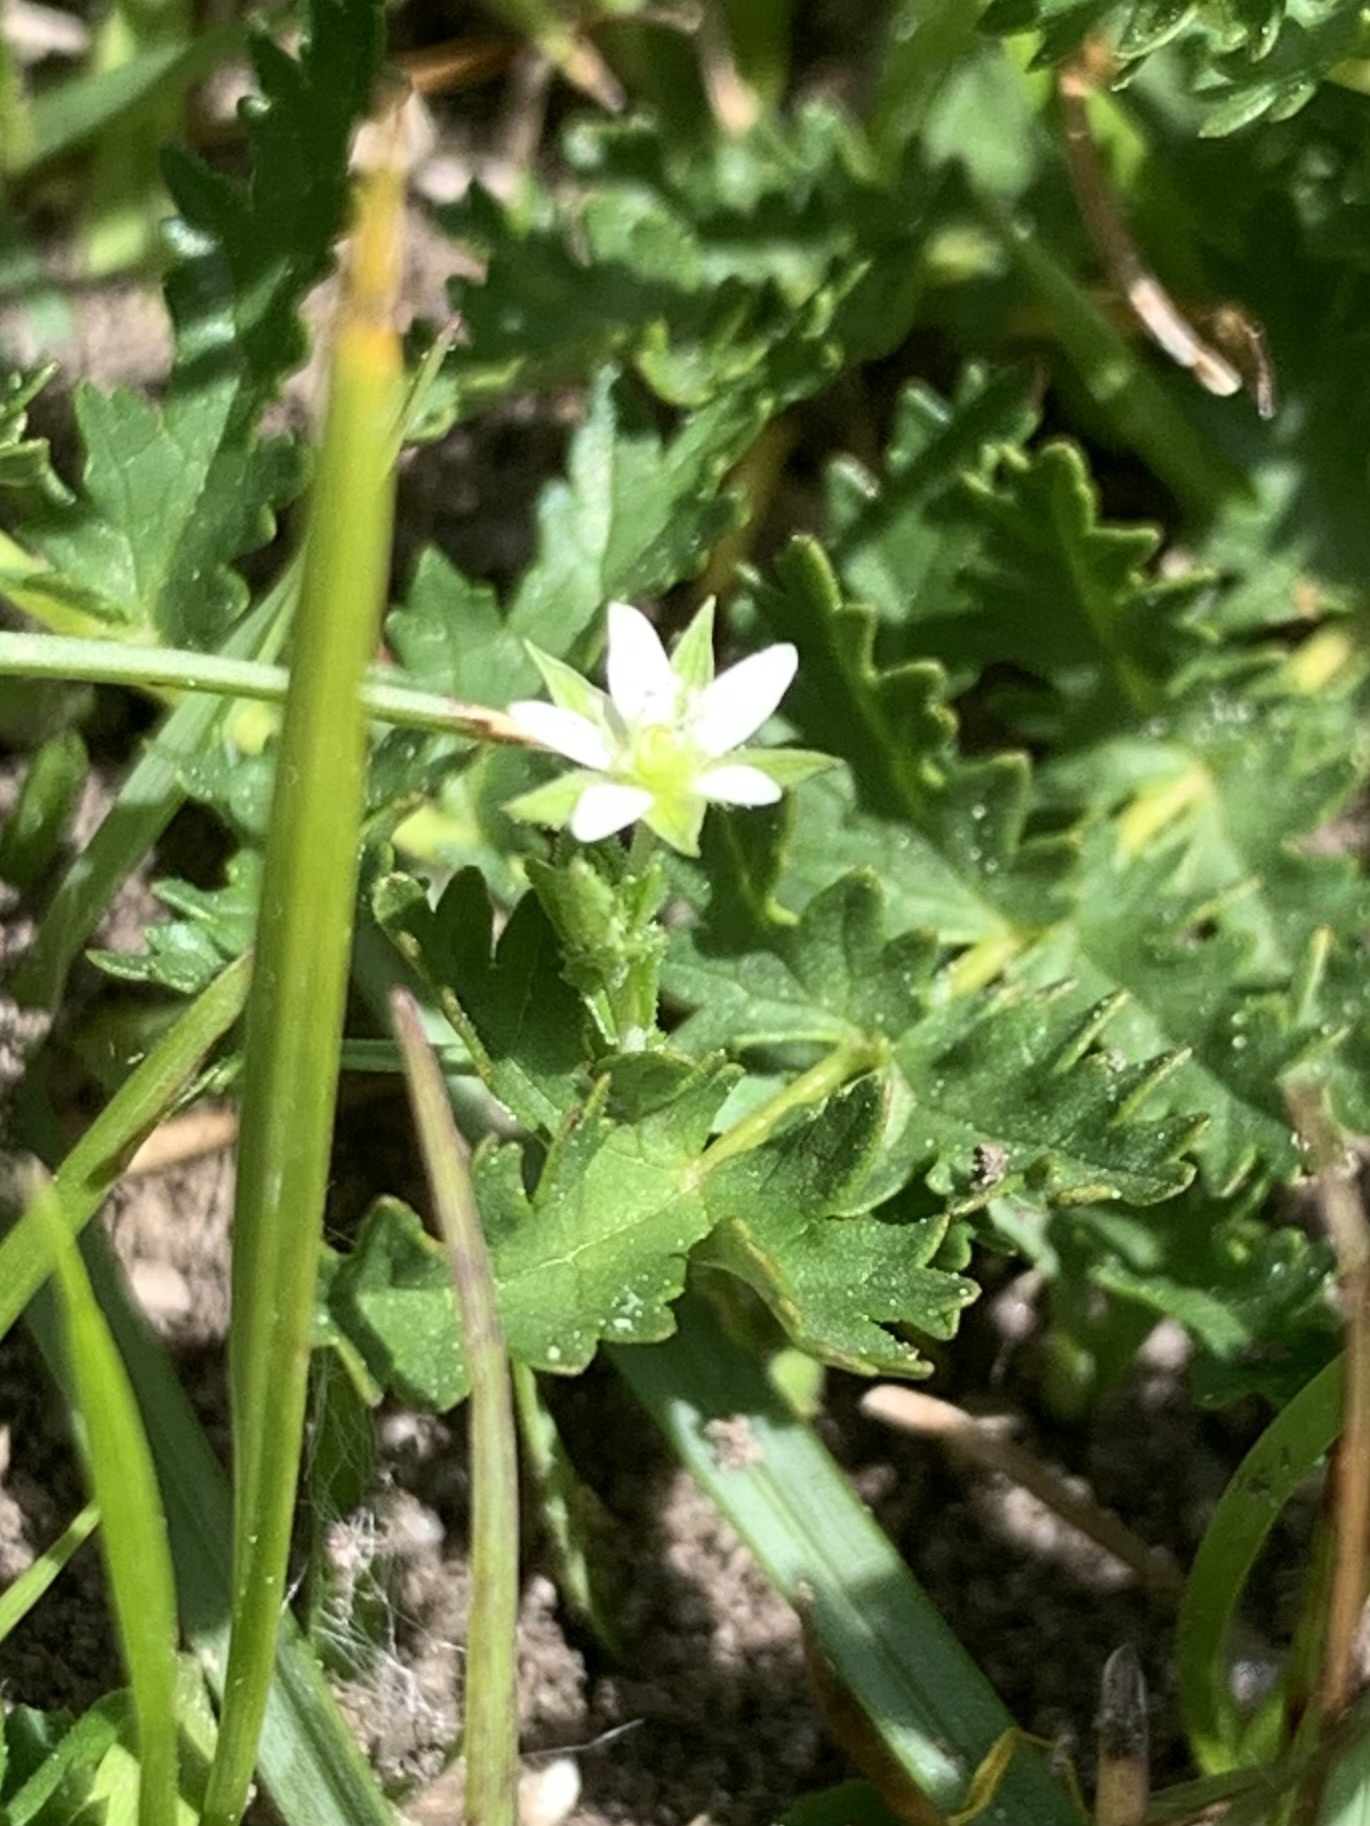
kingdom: Plantae
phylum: Tracheophyta
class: Magnoliopsida
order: Caryophyllales
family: Caryophyllaceae
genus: Arenaria
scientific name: Arenaria serpyllifolia
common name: Thyme-leaved sandwort
